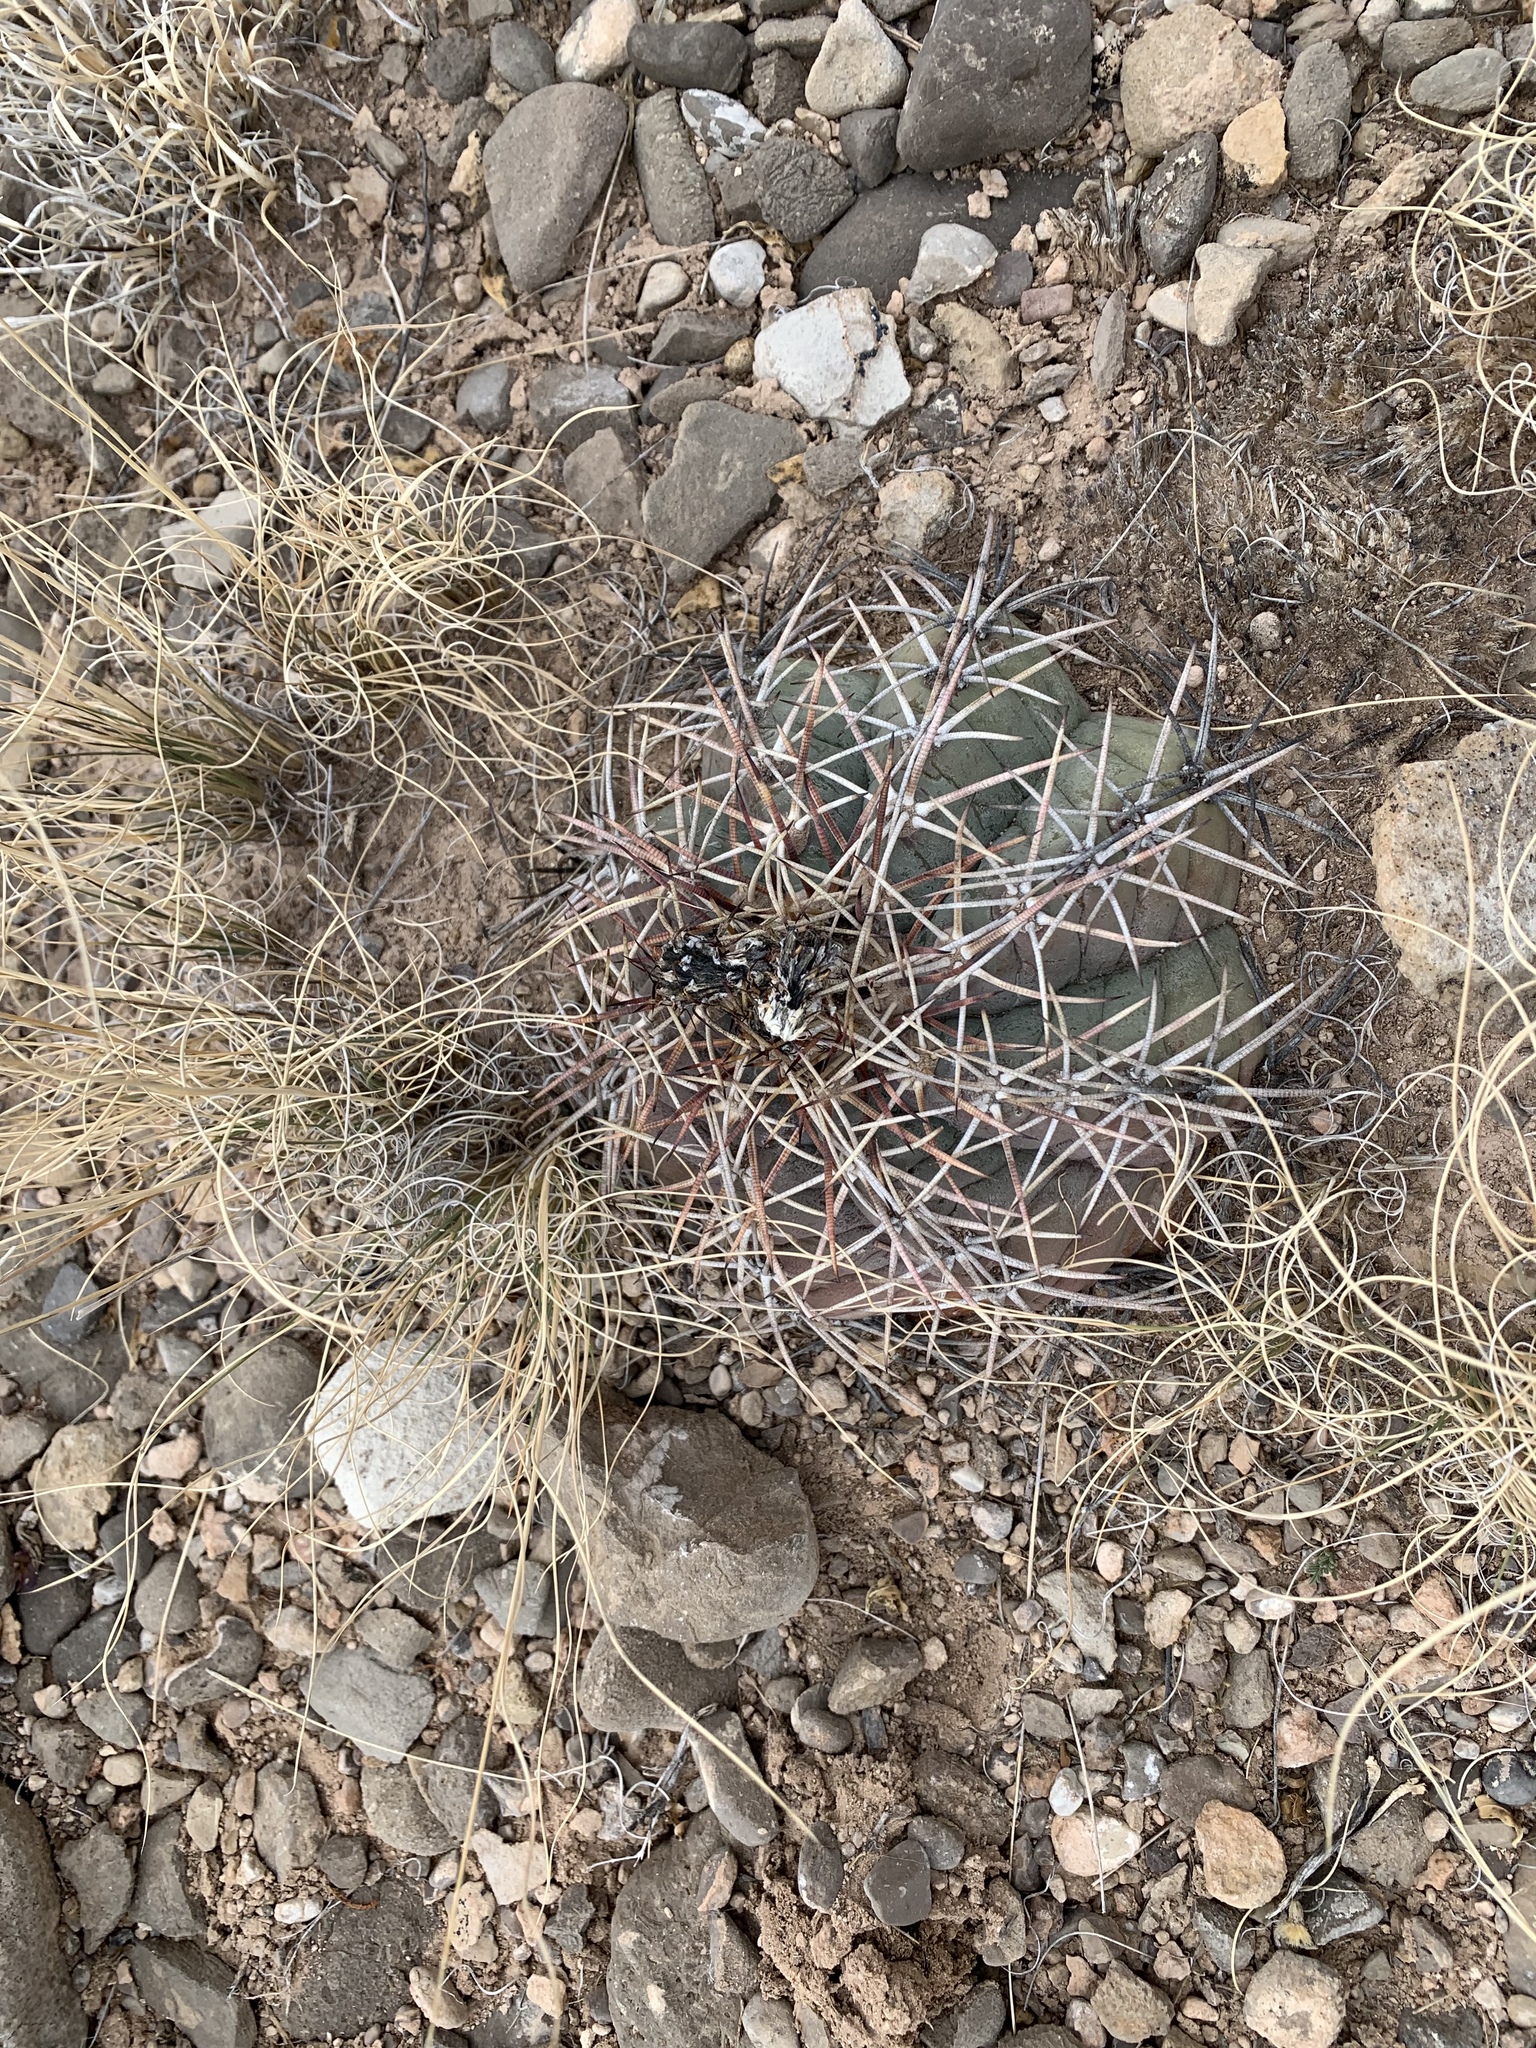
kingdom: Plantae
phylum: Tracheophyta
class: Magnoliopsida
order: Caryophyllales
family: Cactaceae
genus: Echinocactus
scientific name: Echinocactus horizonthalonius
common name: Devilshead
